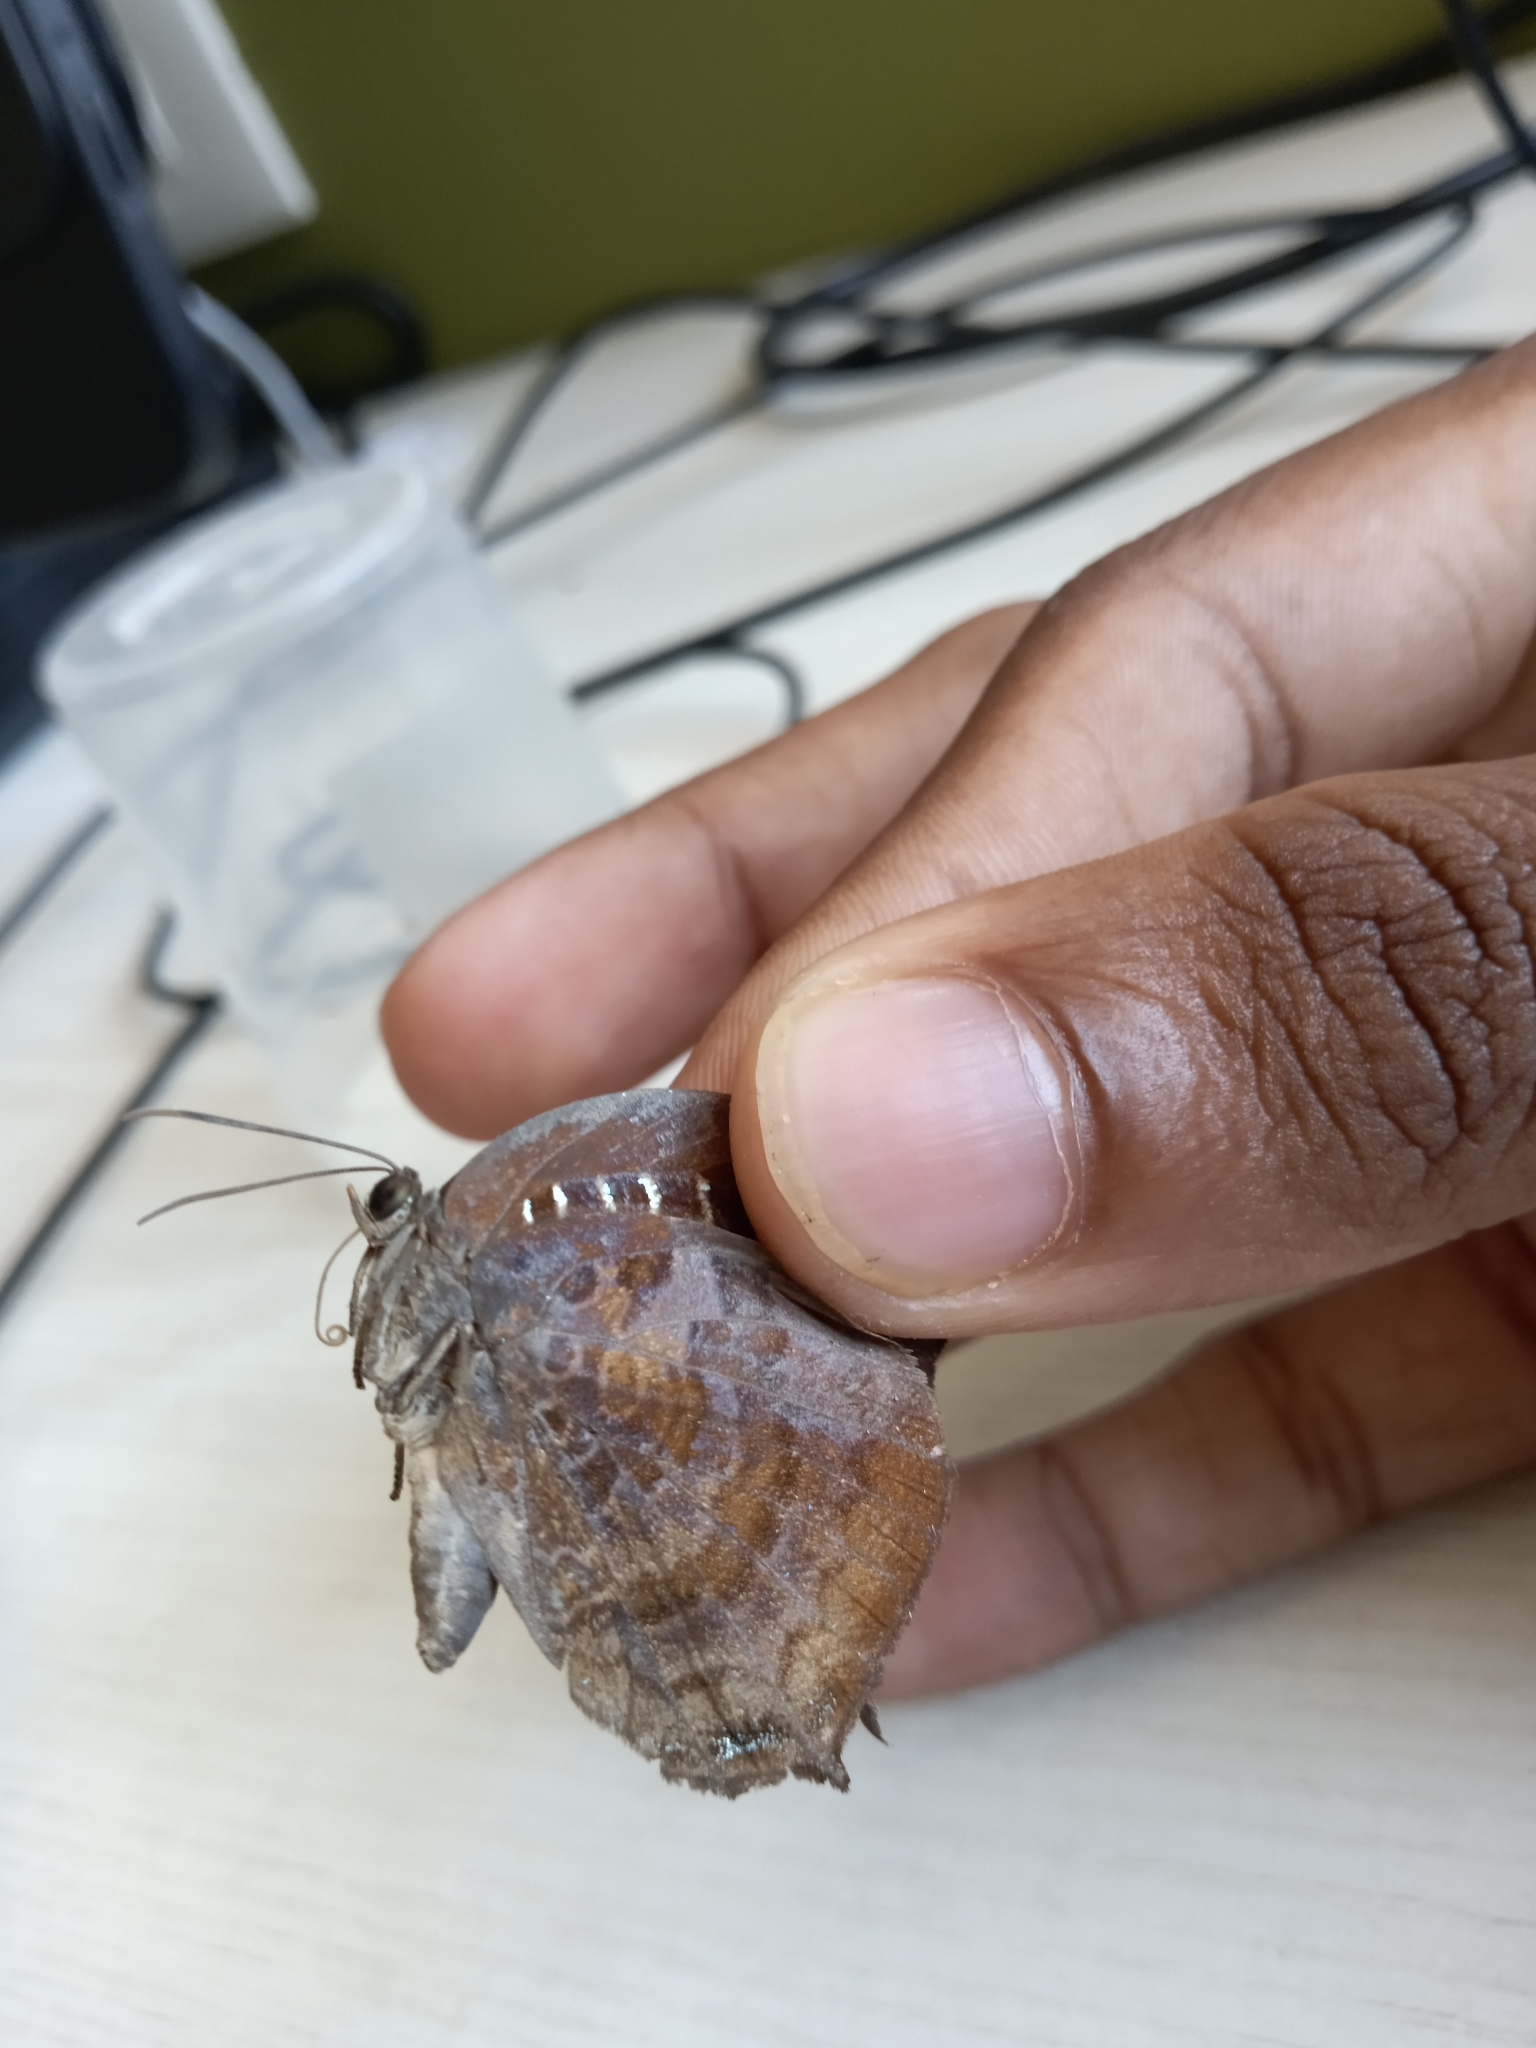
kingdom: Animalia
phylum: Arthropoda
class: Insecta
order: Lepidoptera
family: Lycaenidae
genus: Arhopala
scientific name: Arhopala centaurus
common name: Dull oak-blue
